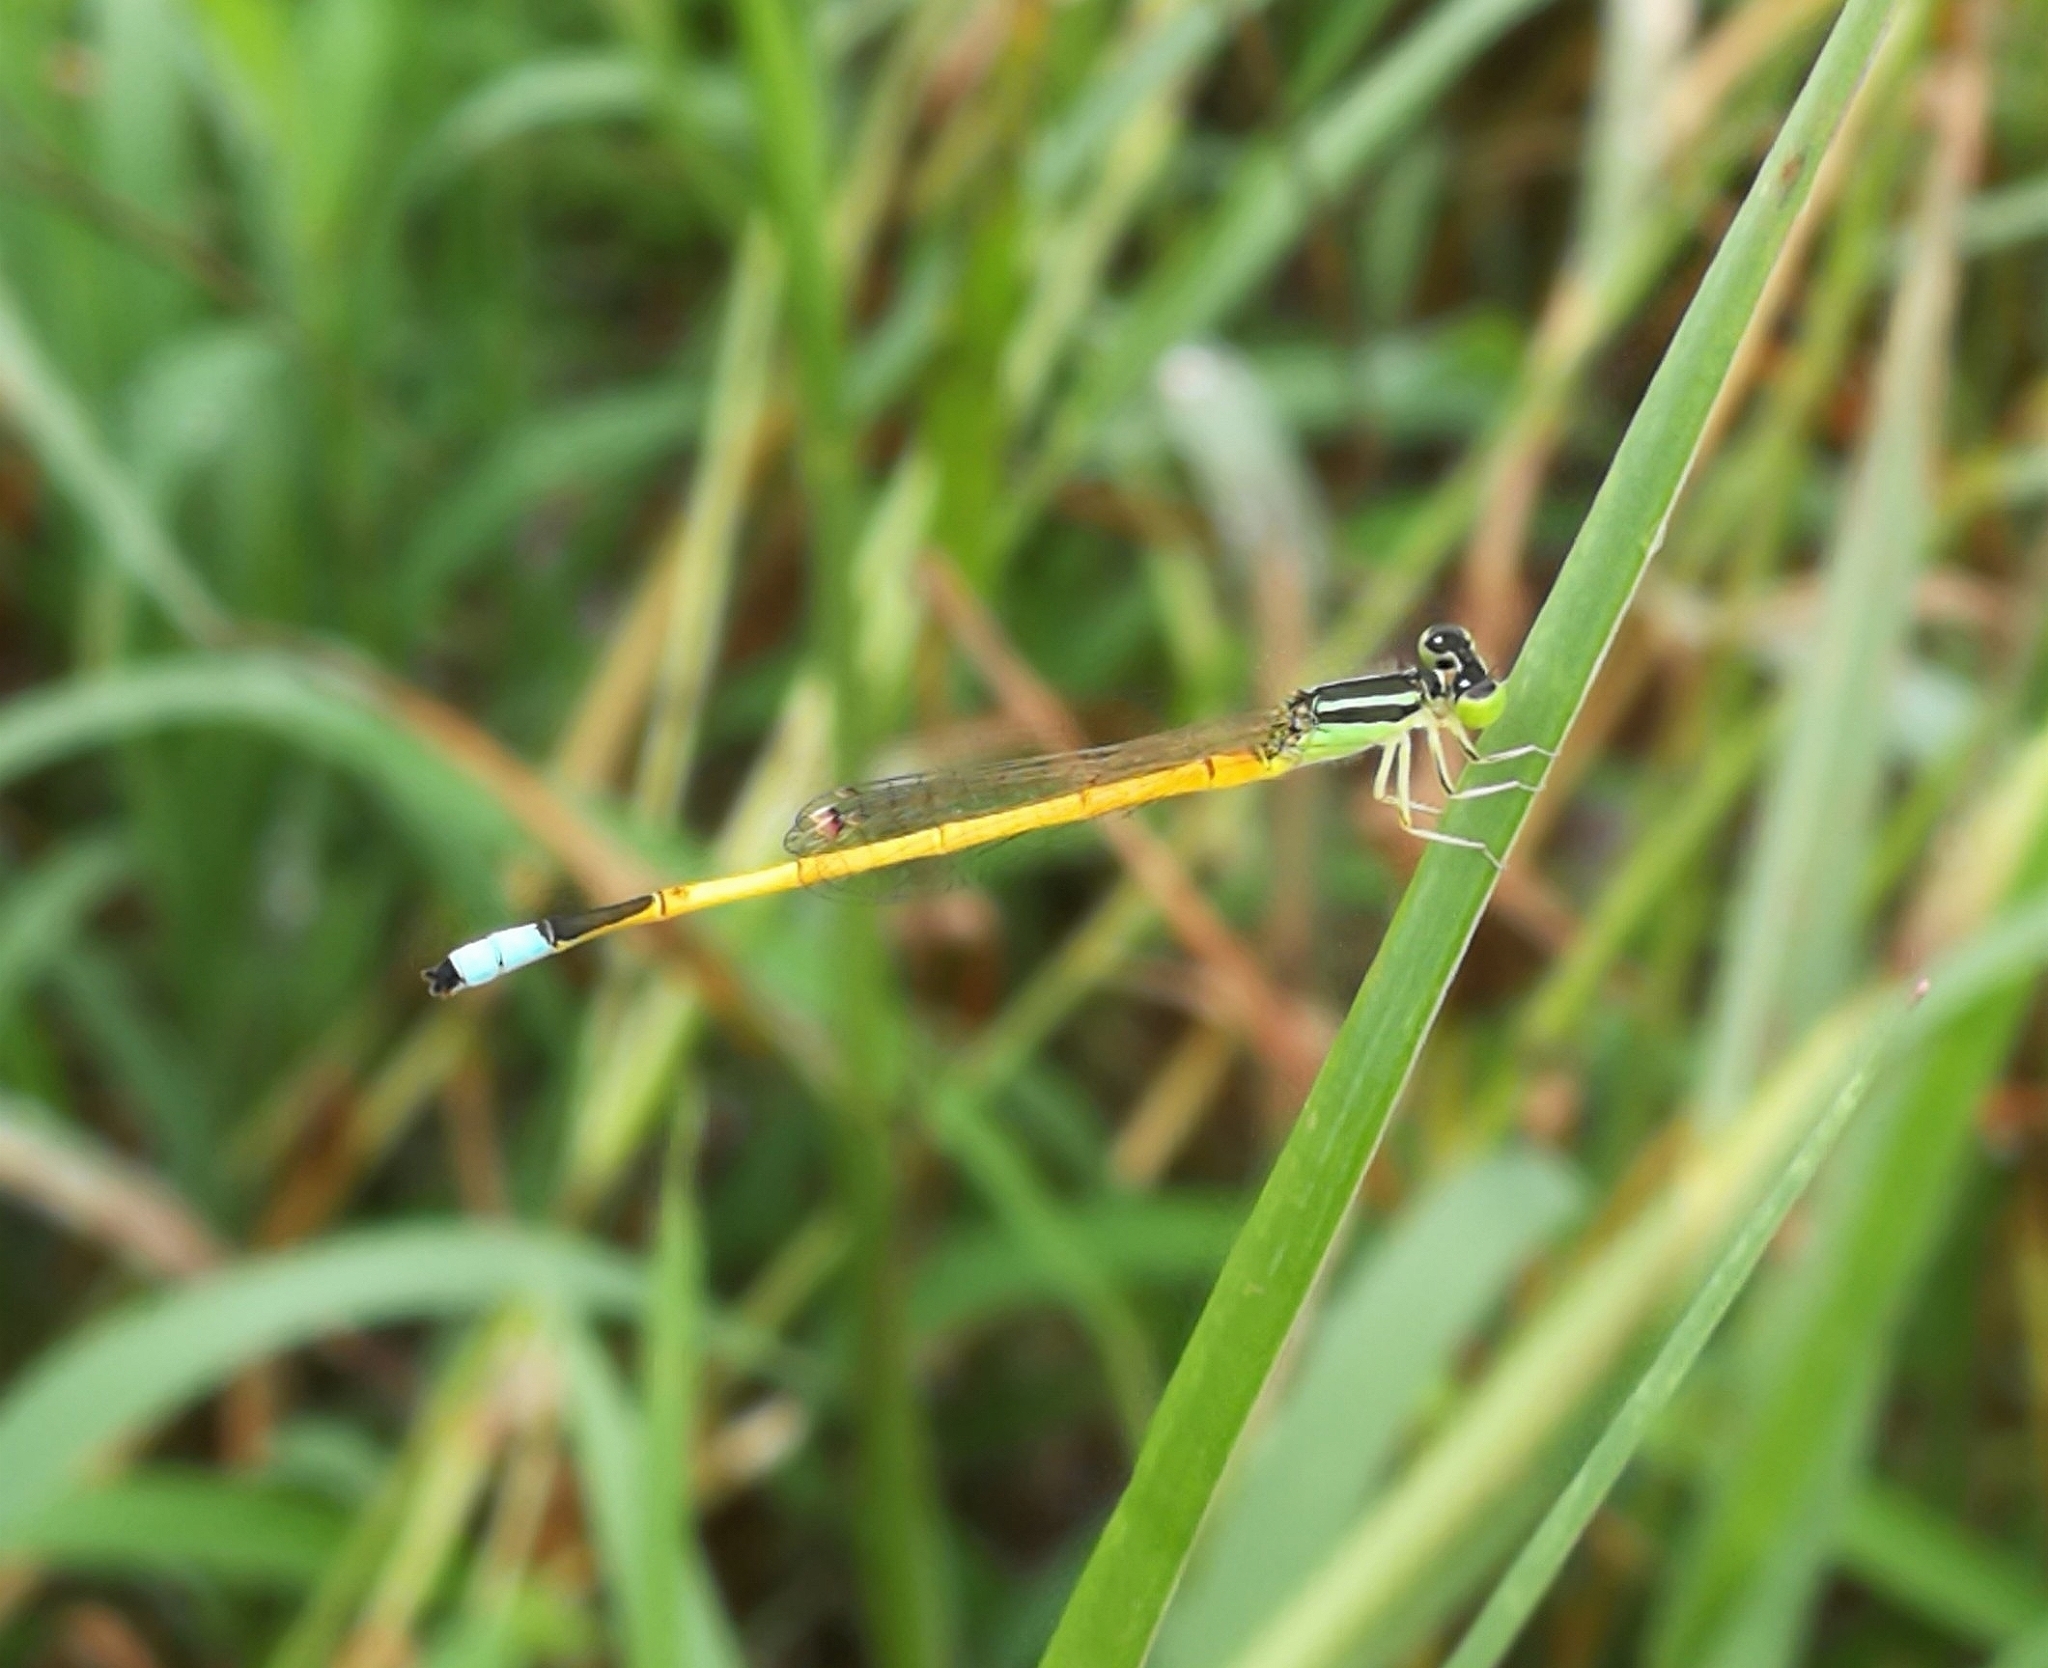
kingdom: Animalia
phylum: Arthropoda
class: Insecta
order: Odonata
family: Coenagrionidae
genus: Ischnura
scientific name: Ischnura rubilio
